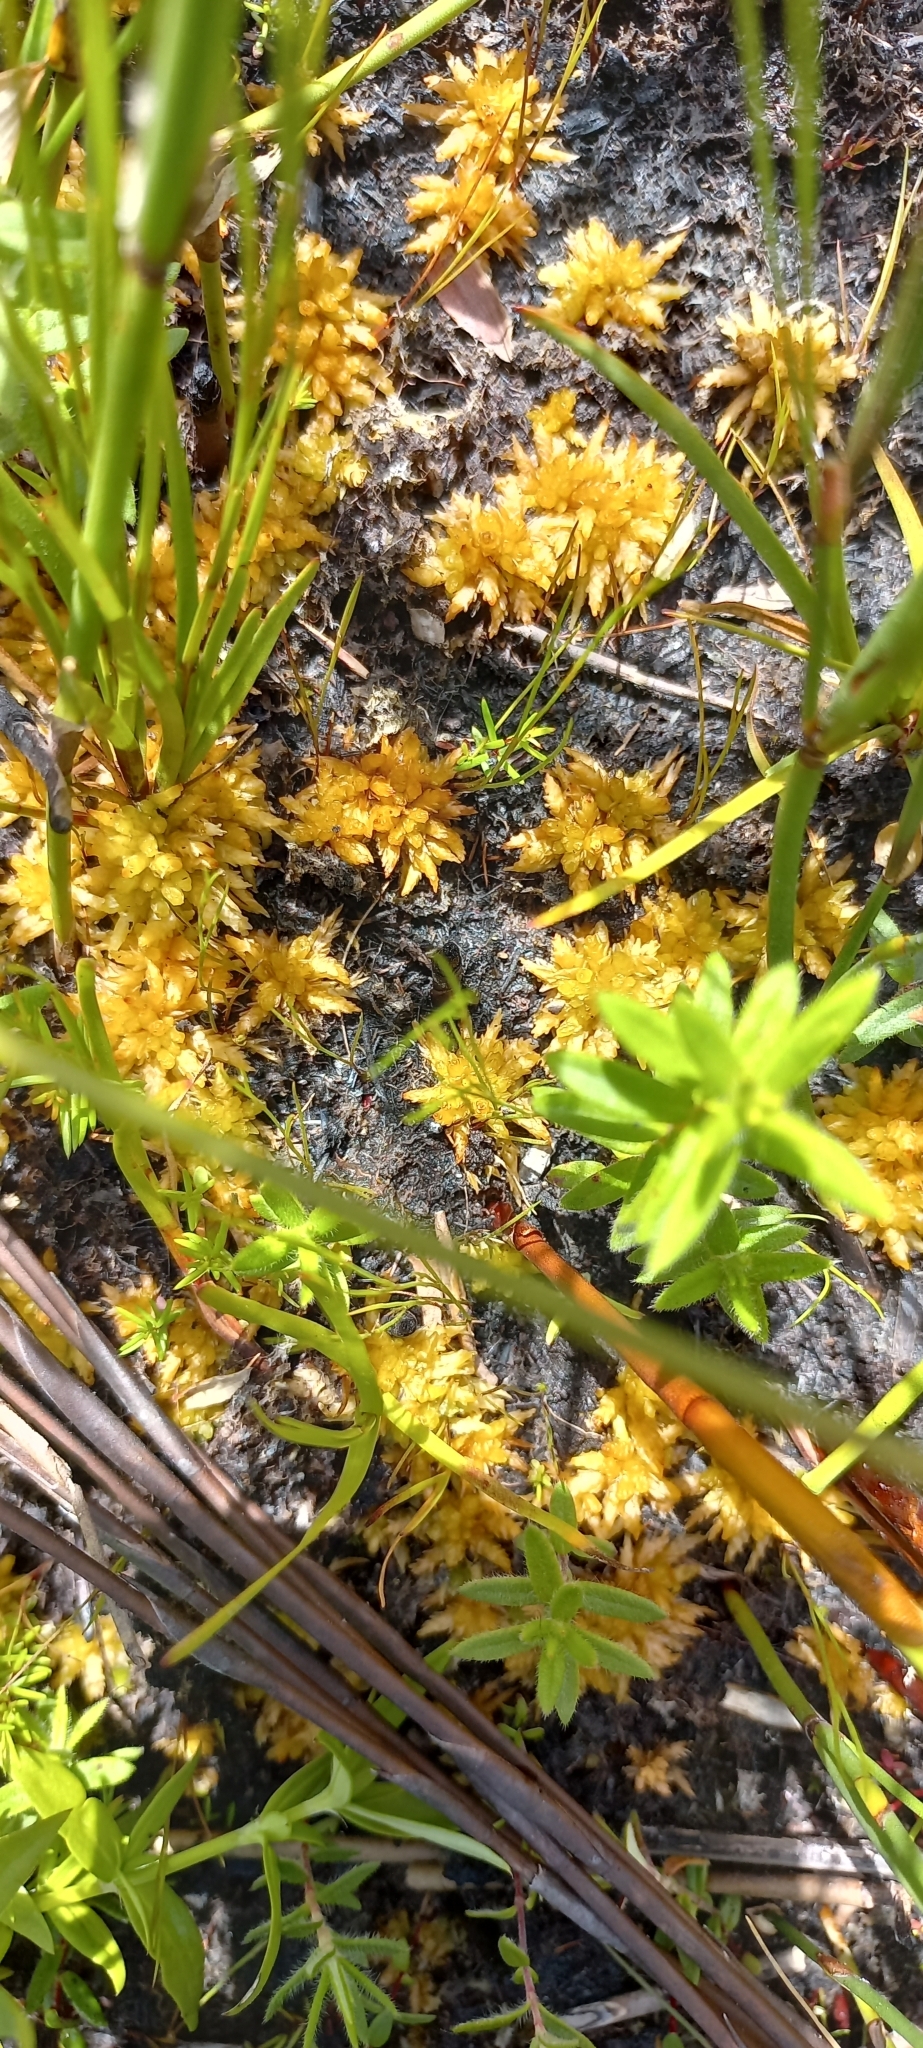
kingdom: Plantae
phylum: Bryophyta
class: Sphagnopsida
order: Sphagnales
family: Sphagnaceae
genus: Sphagnum
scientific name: Sphagnum perichaetiale
